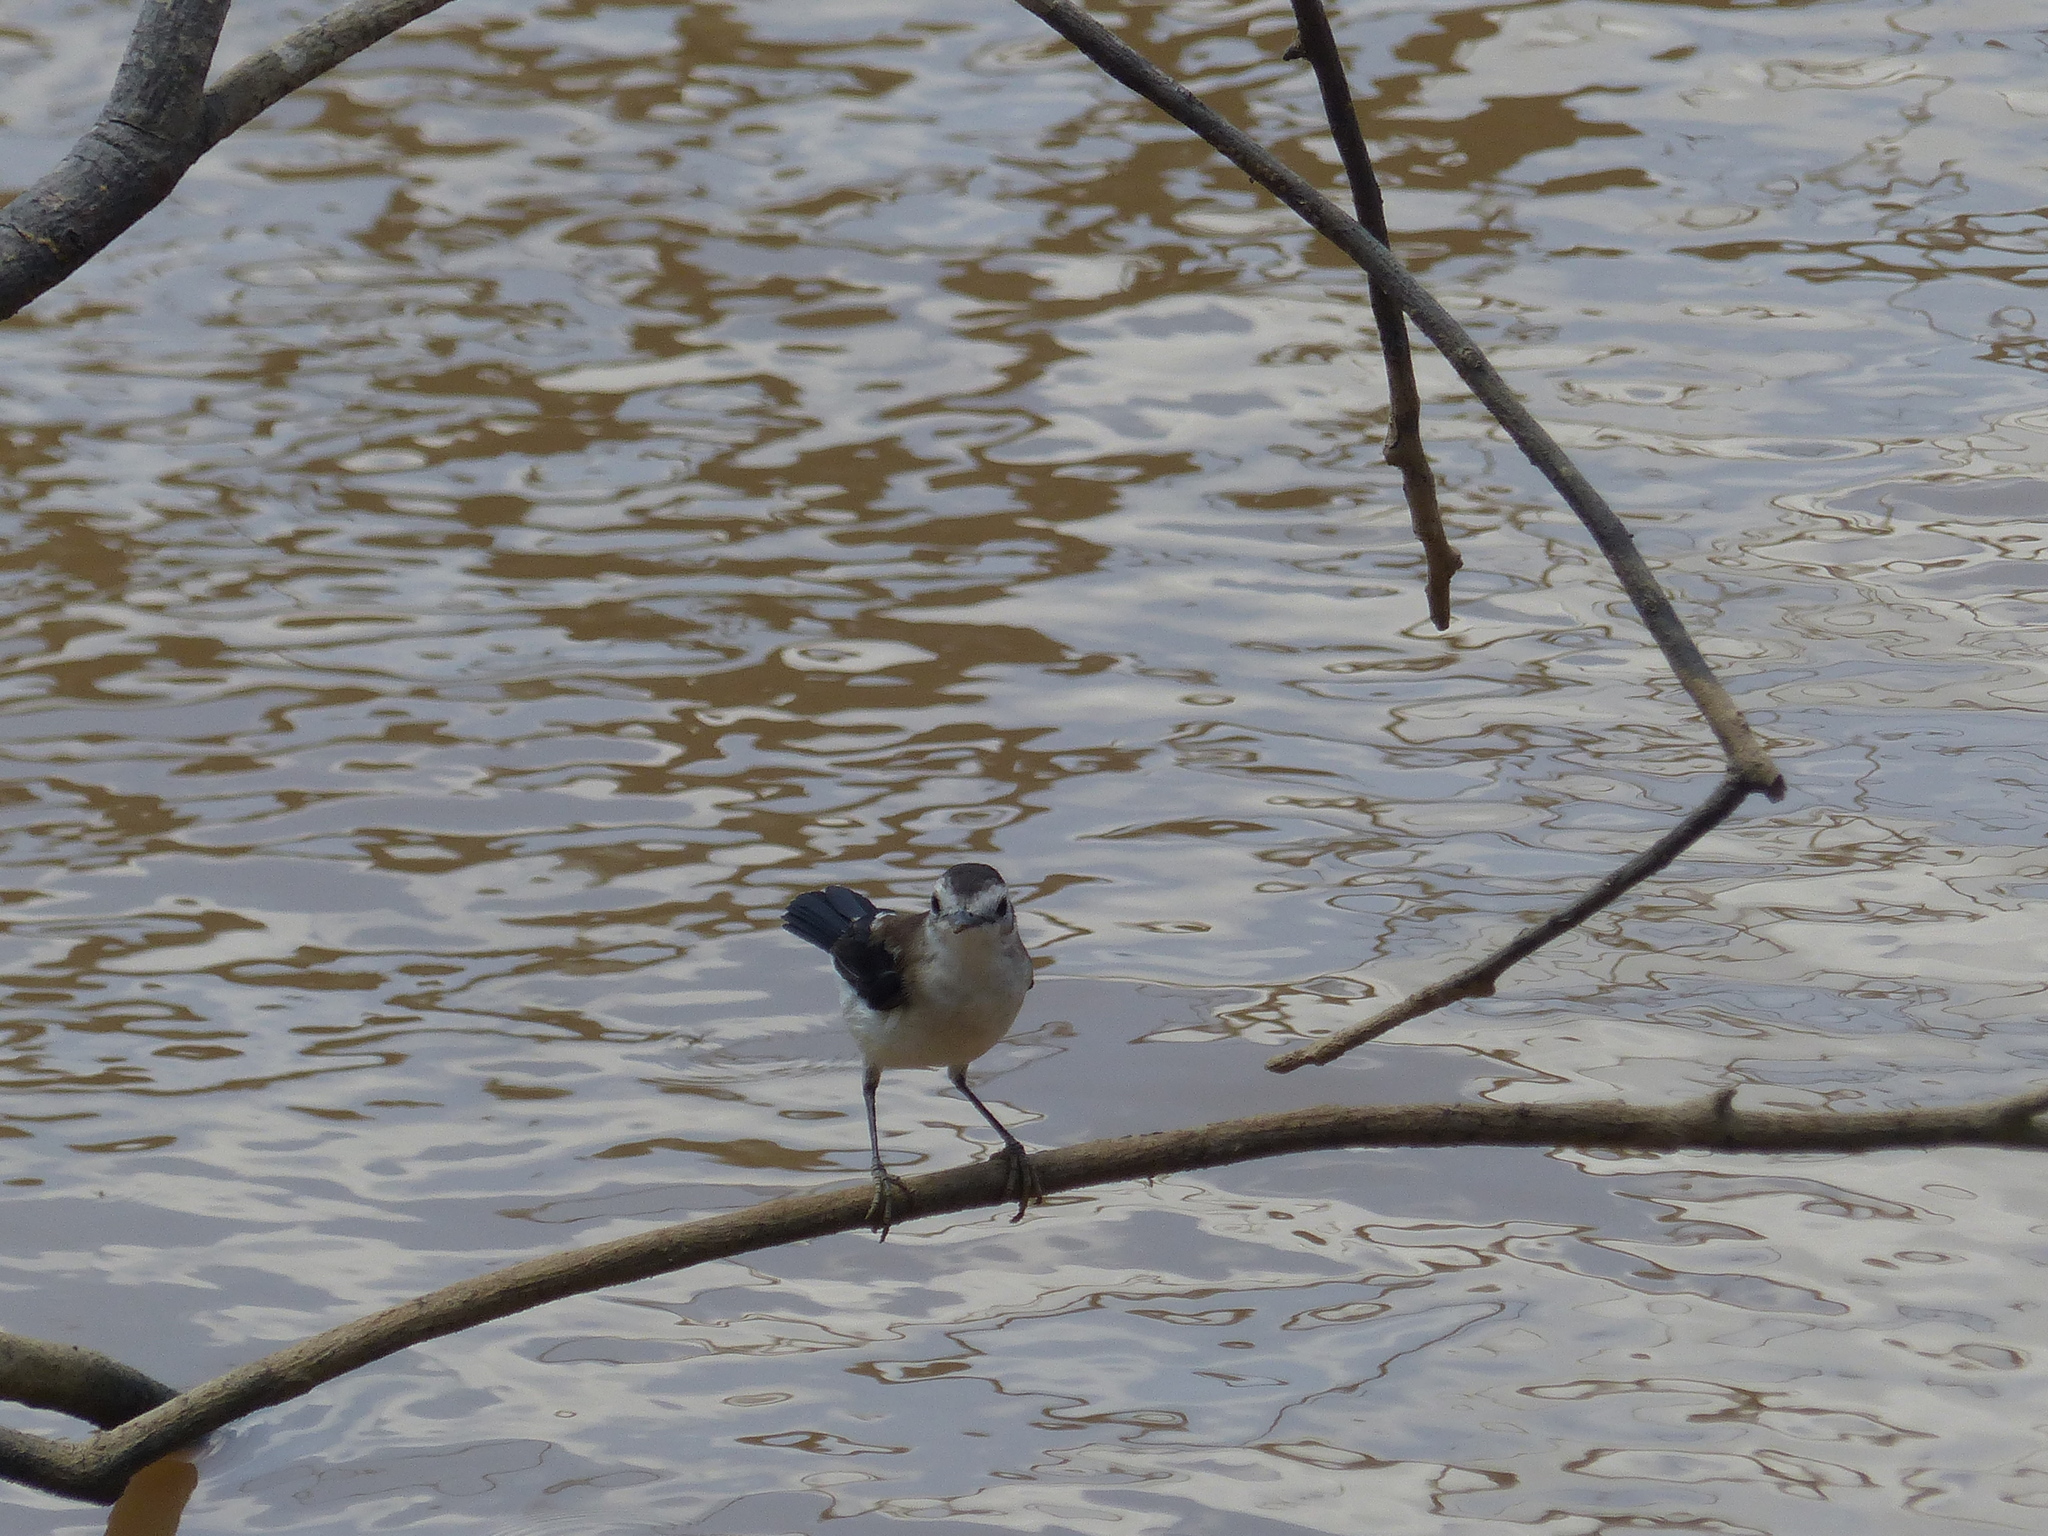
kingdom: Animalia
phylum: Chordata
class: Aves
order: Passeriformes
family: Tyrannidae
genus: Fluvicola
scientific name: Fluvicola pica
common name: Pied water-tyrant
